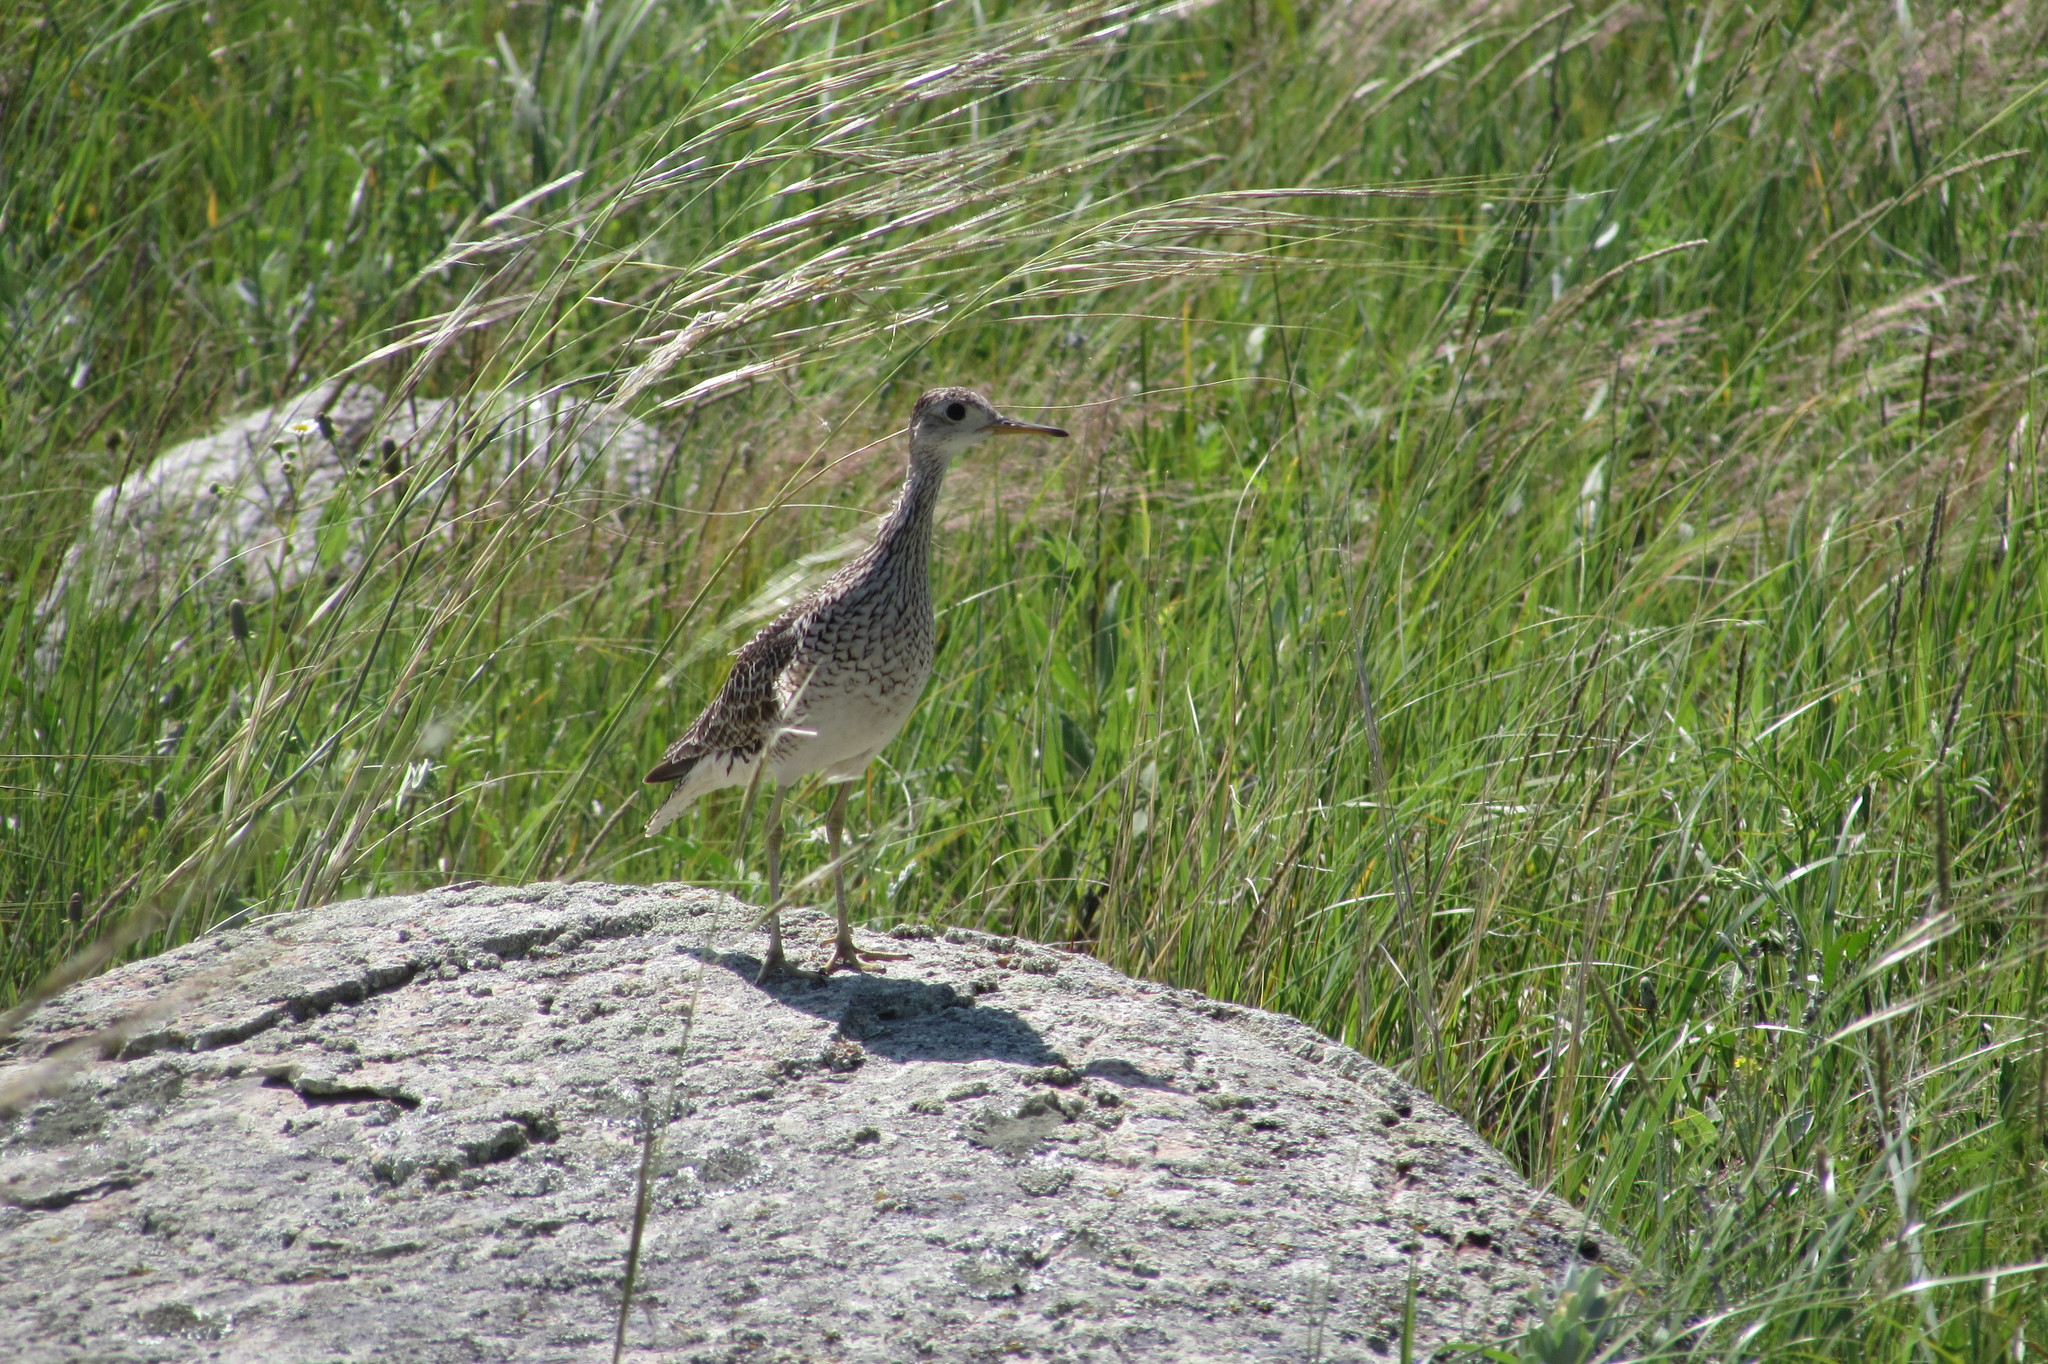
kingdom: Animalia
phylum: Chordata
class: Aves
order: Charadriiformes
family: Scolopacidae
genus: Bartramia
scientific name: Bartramia longicauda
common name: Upland sandpiper
